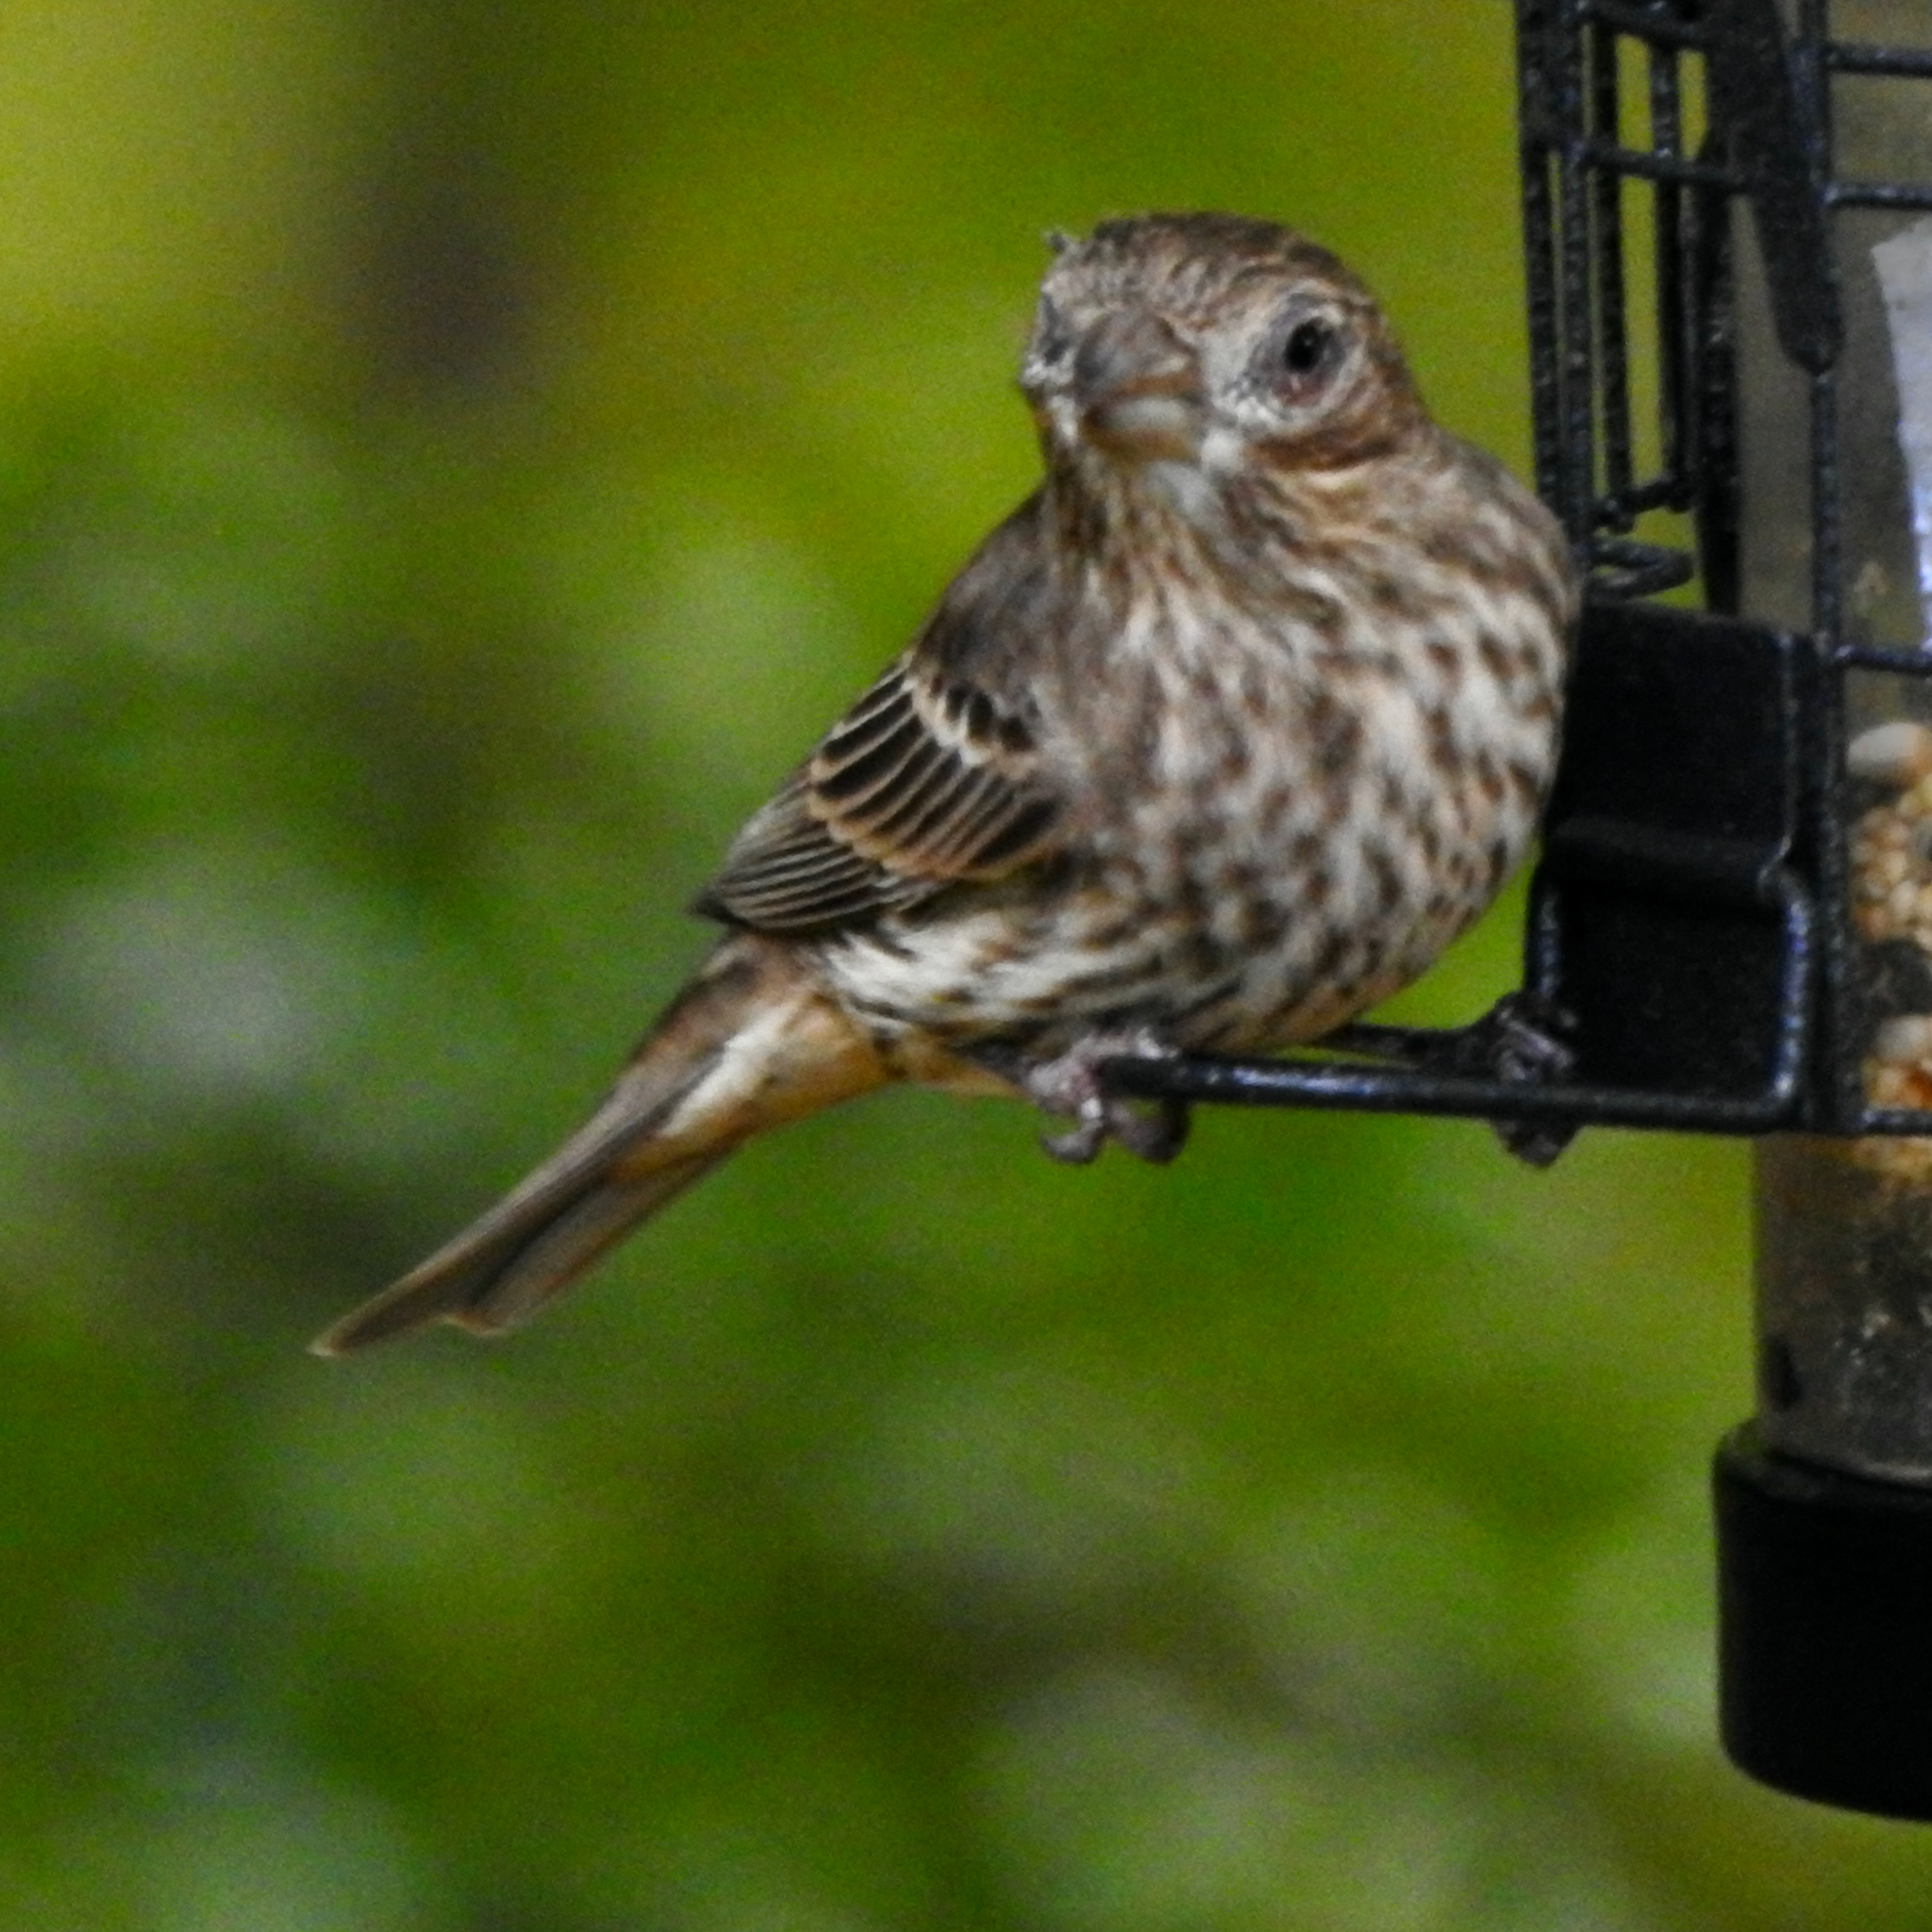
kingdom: Animalia
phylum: Chordata
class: Aves
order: Passeriformes
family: Fringillidae
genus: Haemorhous
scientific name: Haemorhous mexicanus
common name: House finch
